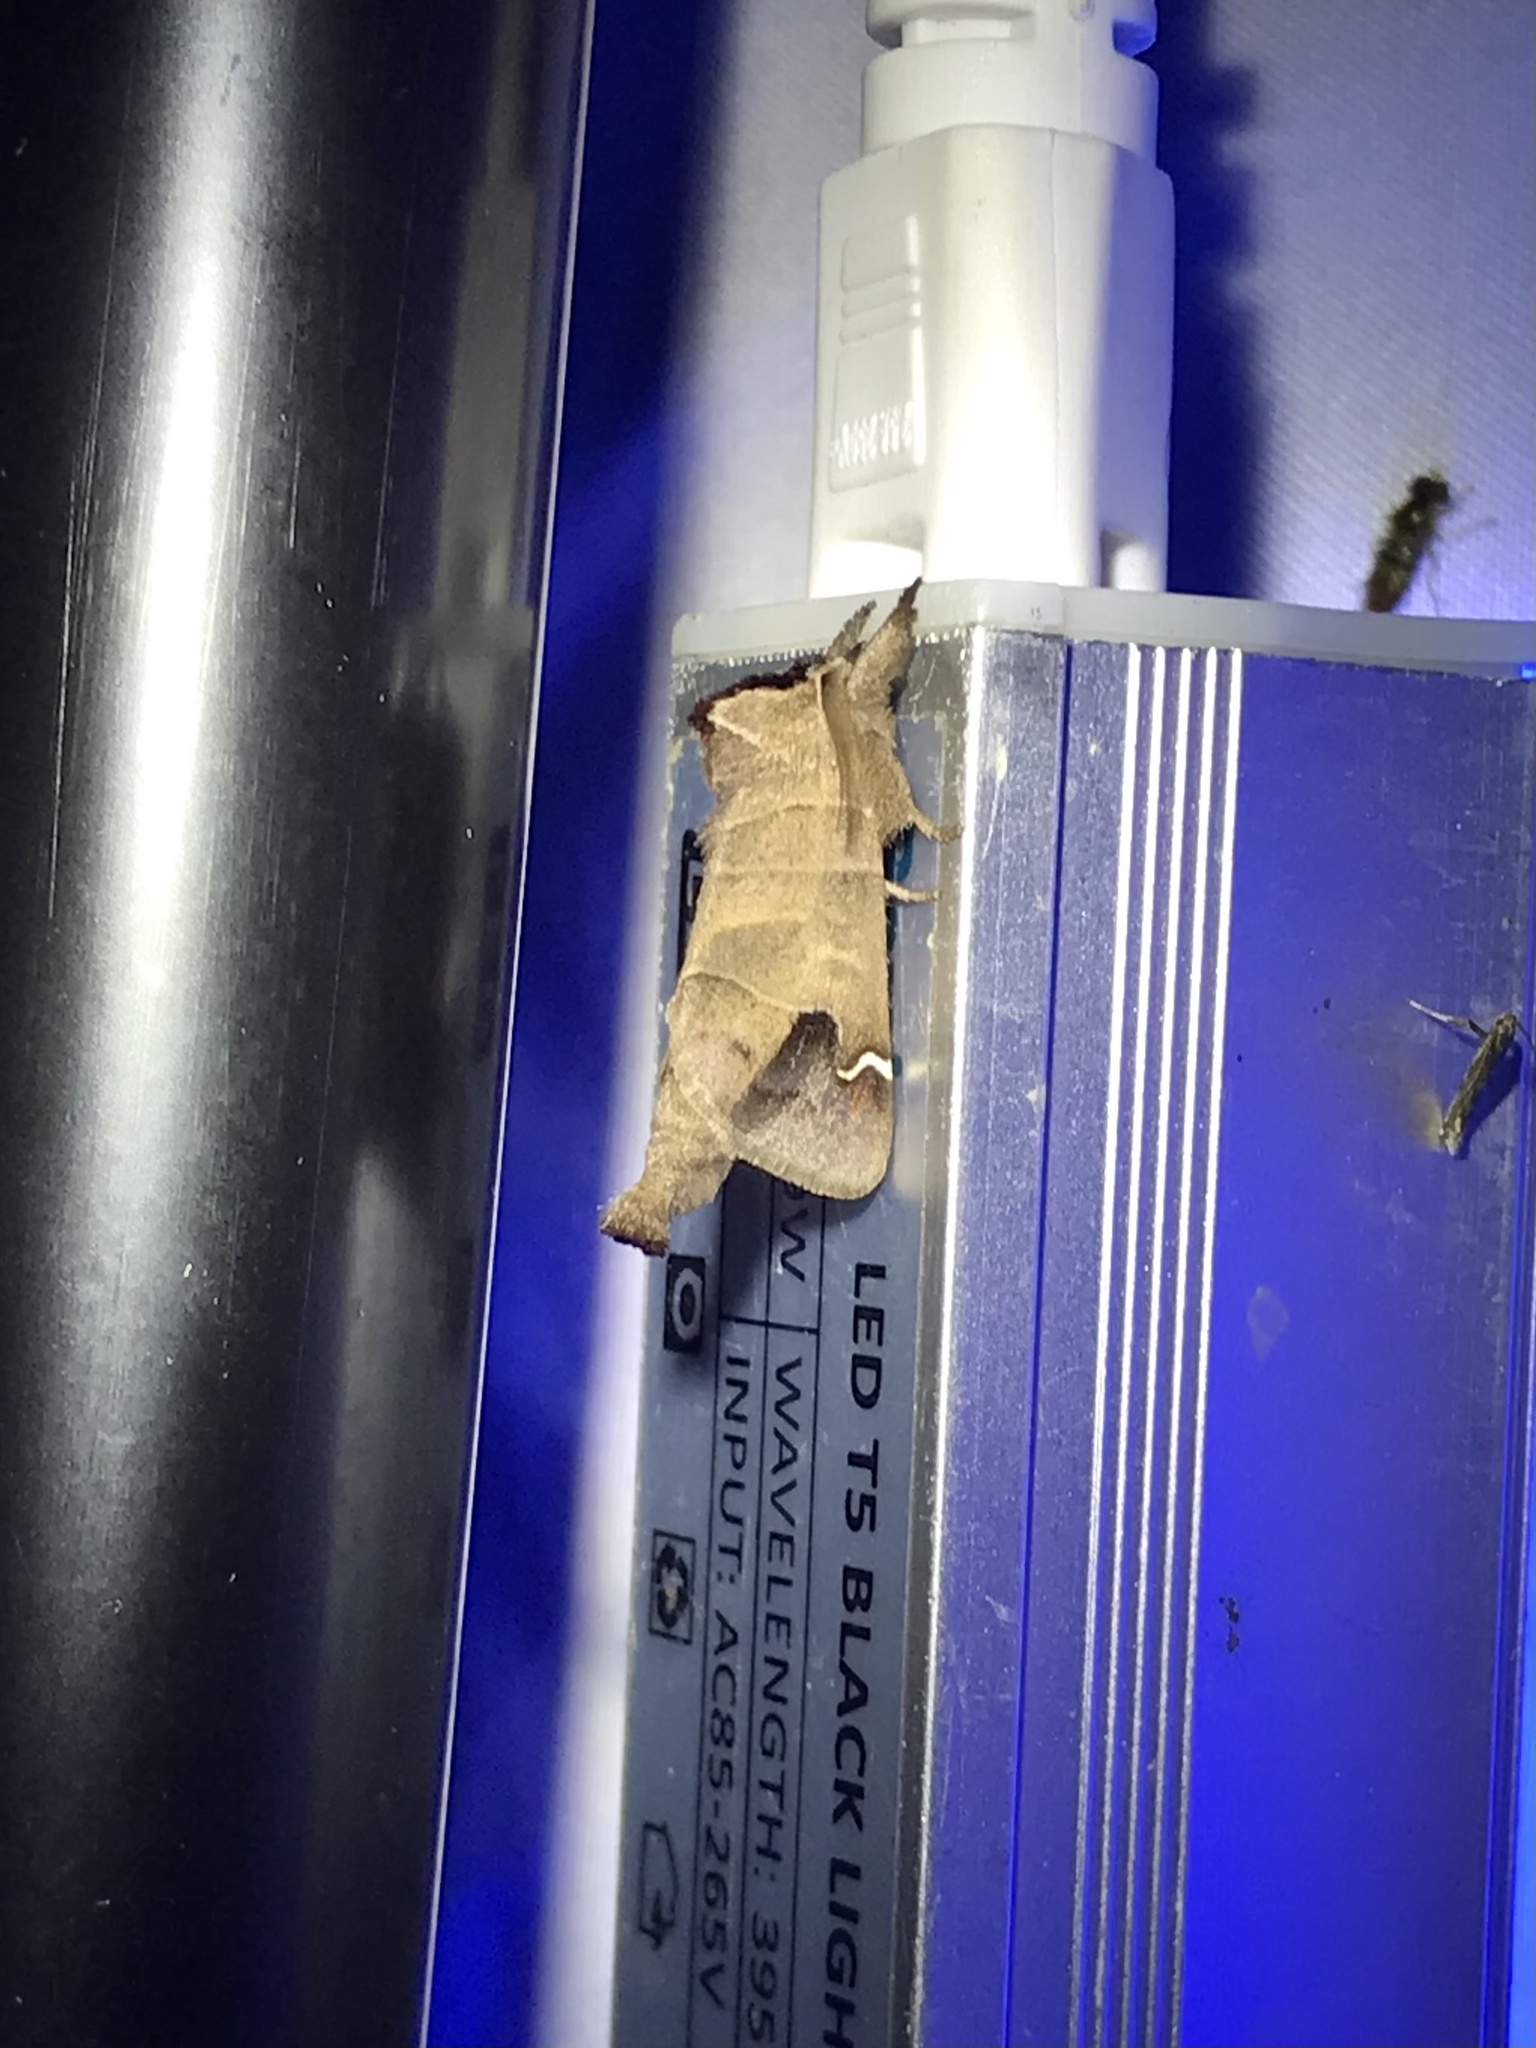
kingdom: Animalia
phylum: Arthropoda
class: Insecta
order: Lepidoptera
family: Notodontidae
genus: Clostera
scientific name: Clostera albosigma
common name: Sigmoid prominent
